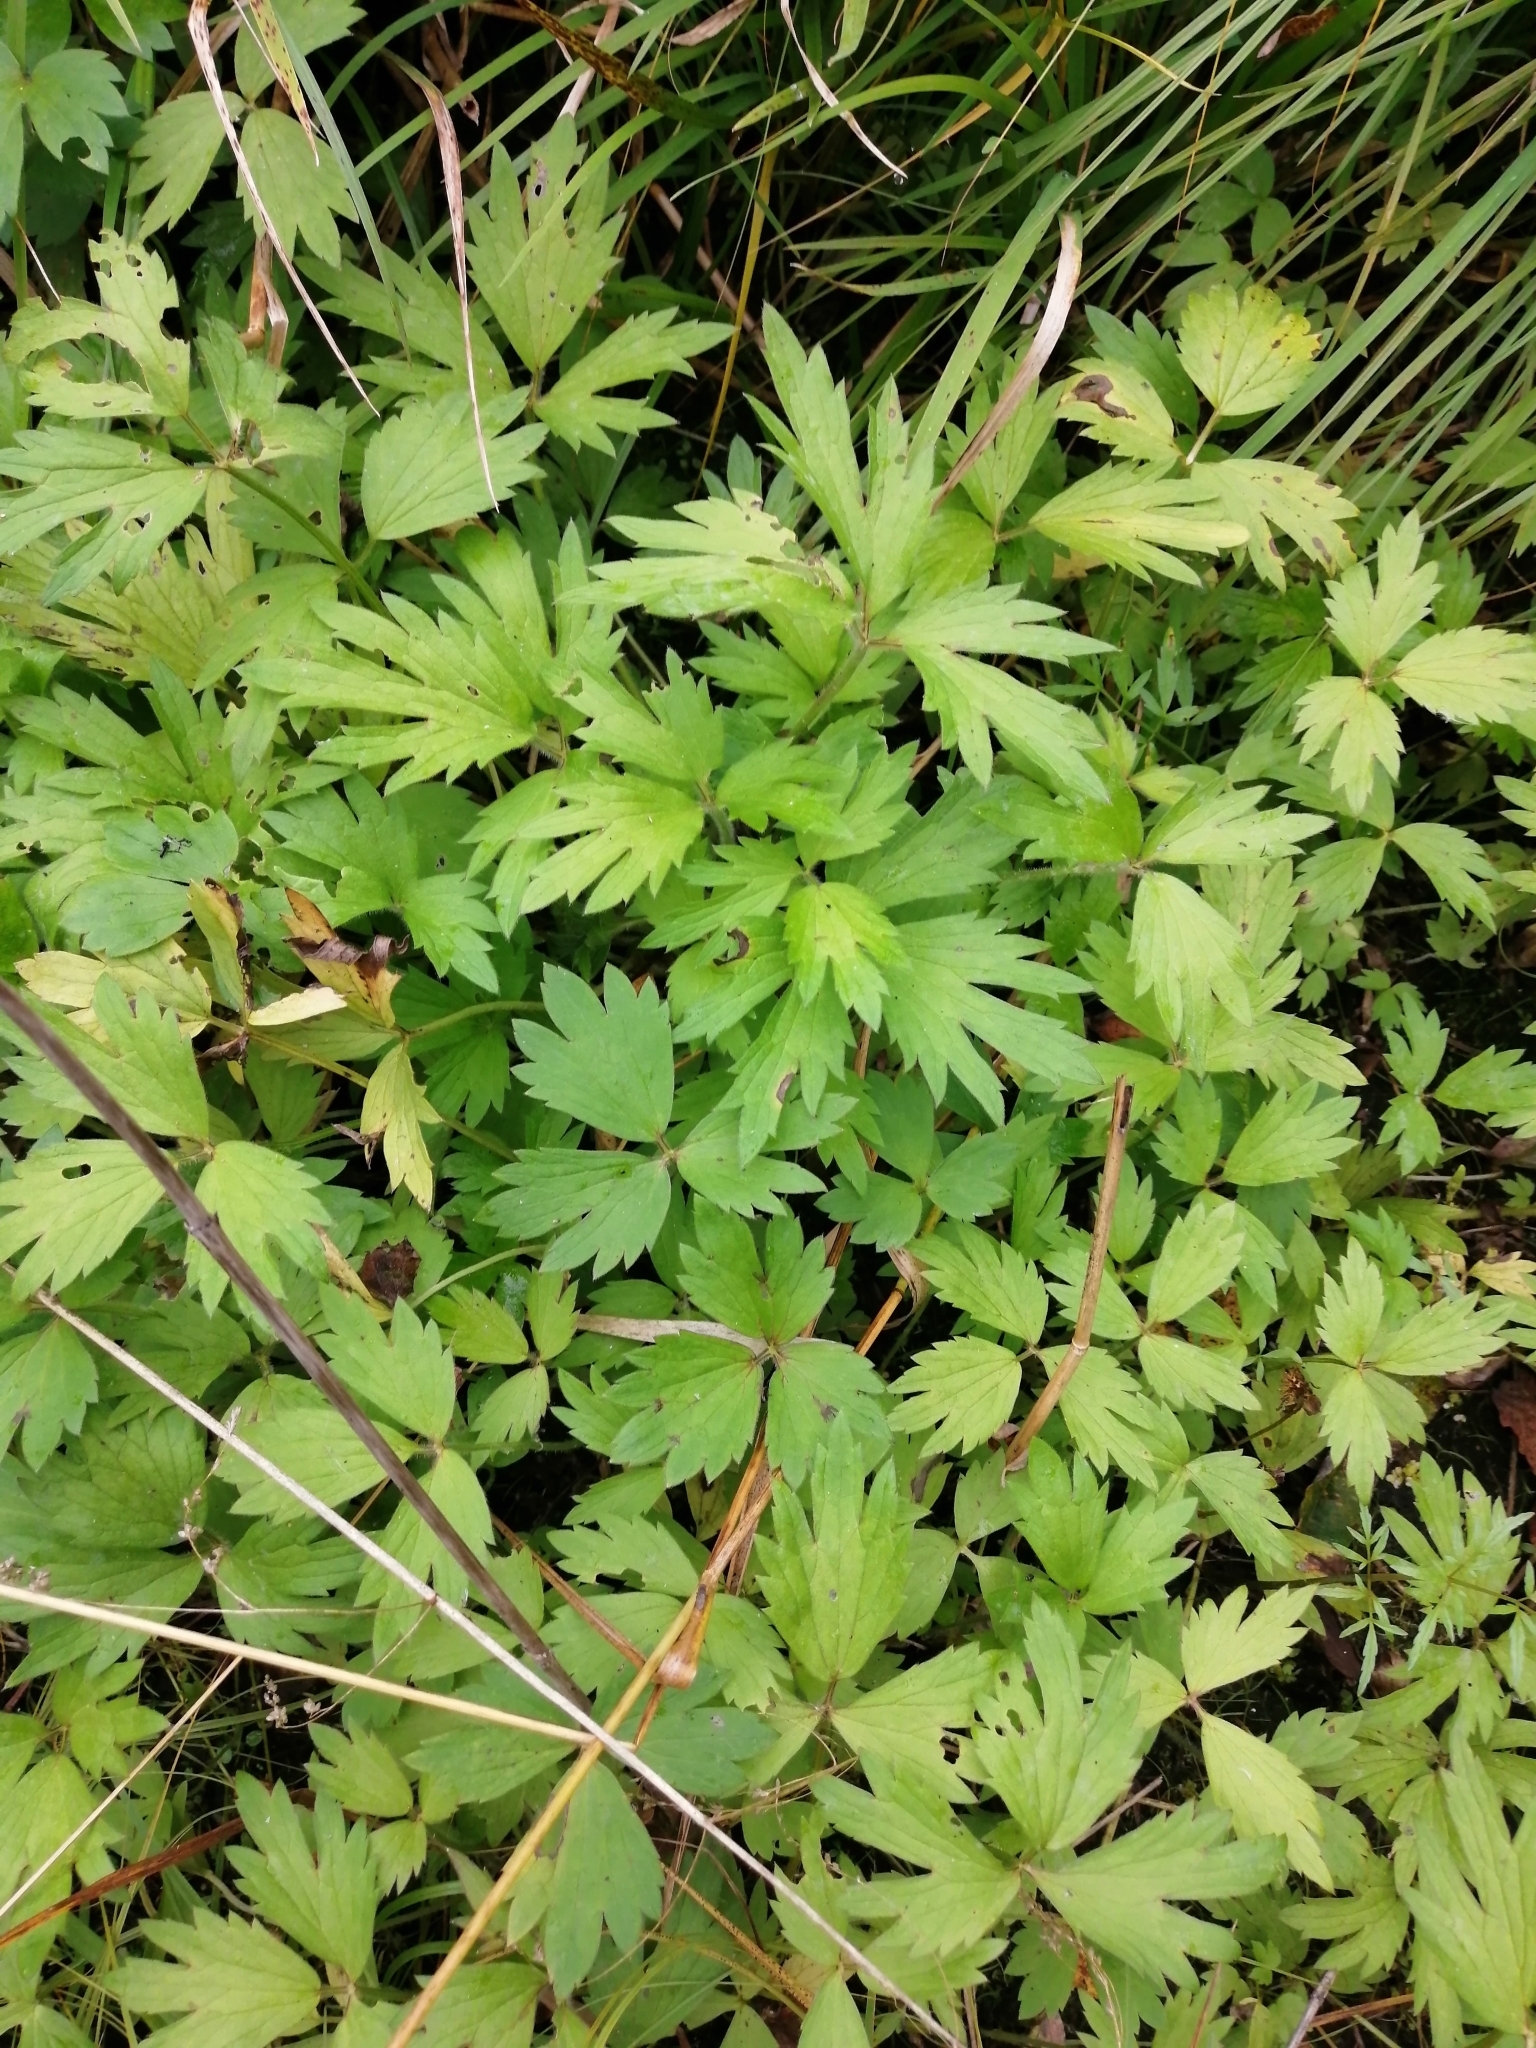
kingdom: Plantae
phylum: Tracheophyta
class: Magnoliopsida
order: Ranunculales
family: Ranunculaceae
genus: Ranunculus
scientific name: Ranunculus repens
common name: Creeping buttercup
